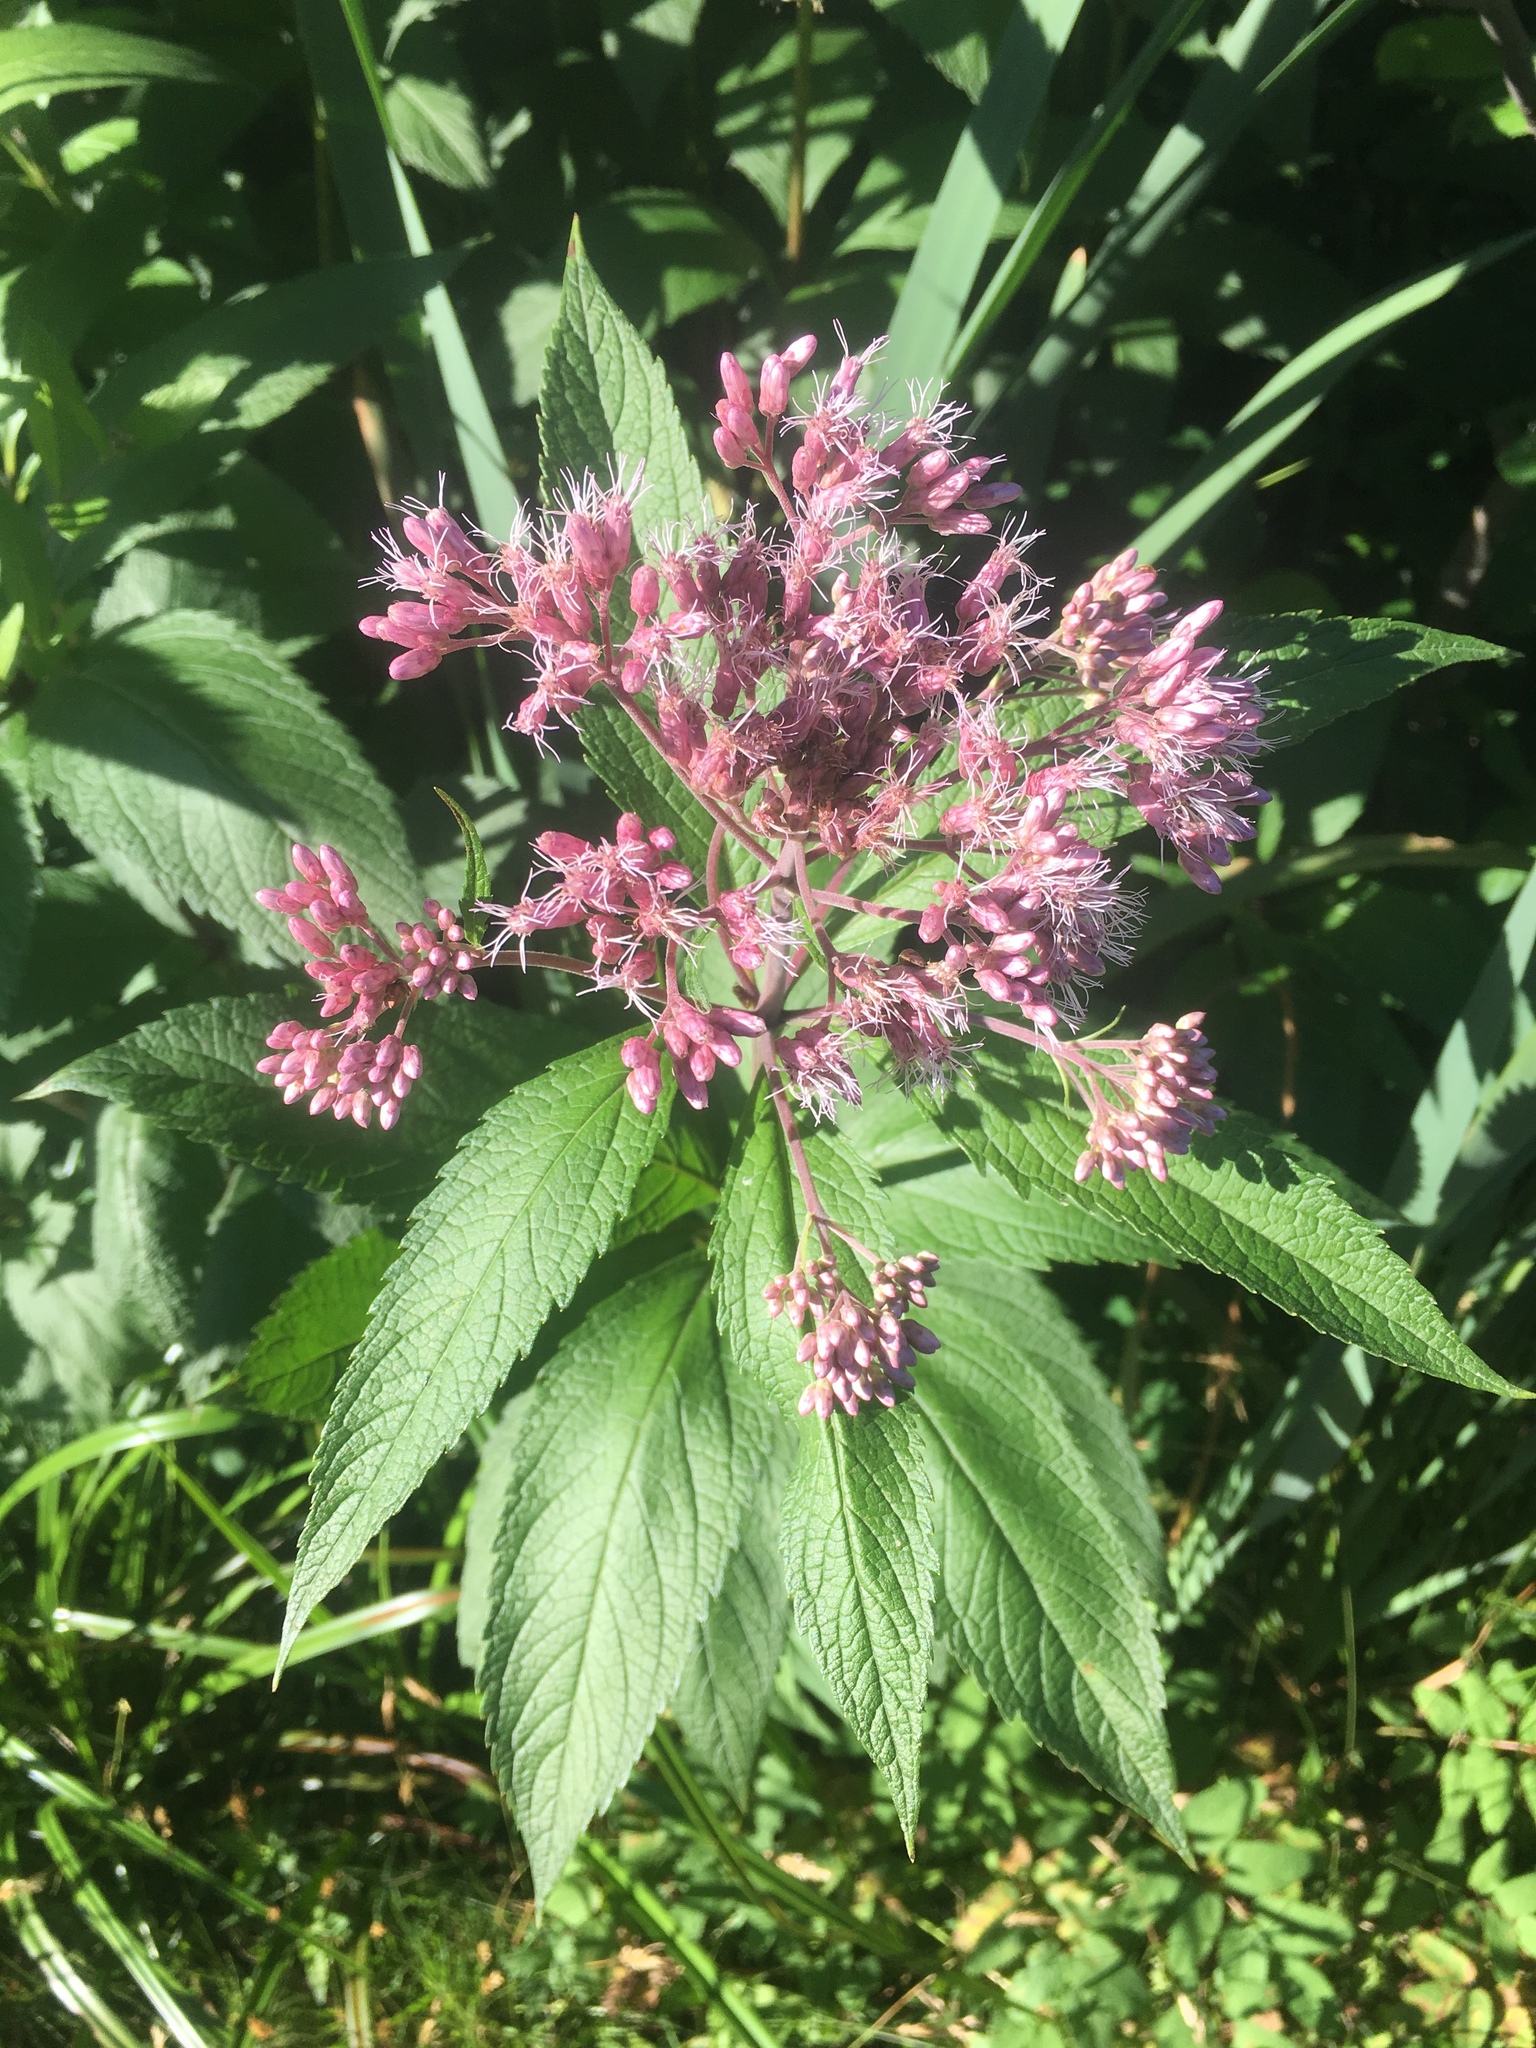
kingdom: Plantae
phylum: Tracheophyta
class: Magnoliopsida
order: Asterales
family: Asteraceae
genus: Eutrochium
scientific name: Eutrochium maculatum
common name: Spotted joe pye weed
